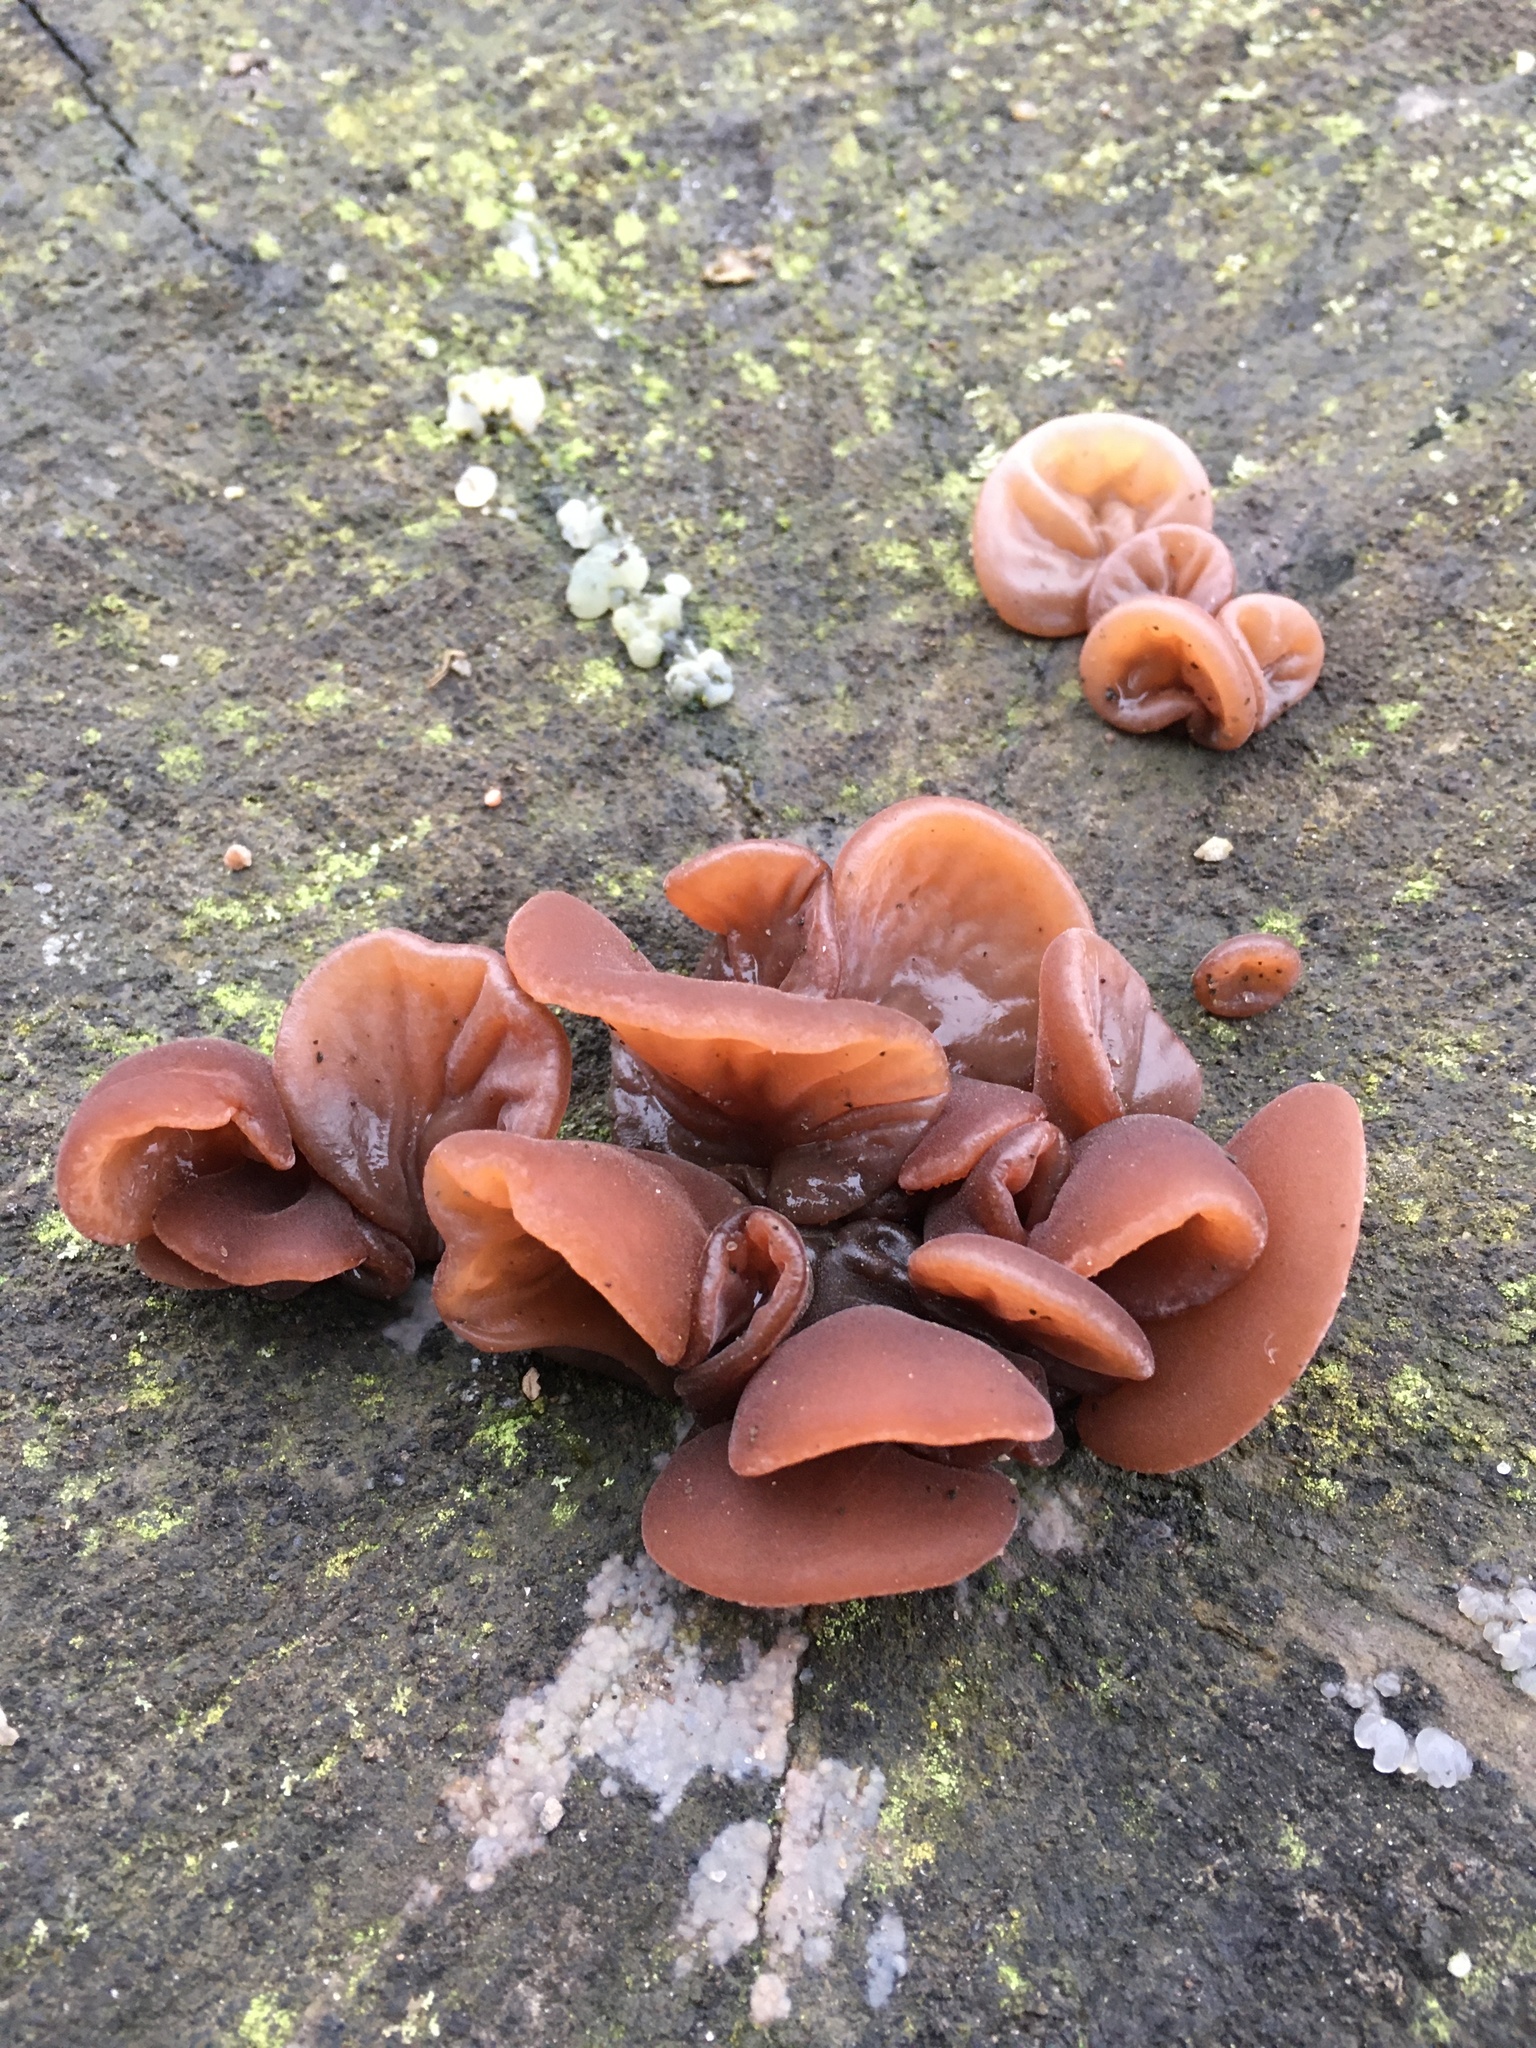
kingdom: Fungi
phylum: Basidiomycota
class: Agaricomycetes
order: Auriculariales
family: Auriculariaceae
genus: Auricularia
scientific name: Auricularia auricula-judae
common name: Jelly ear
